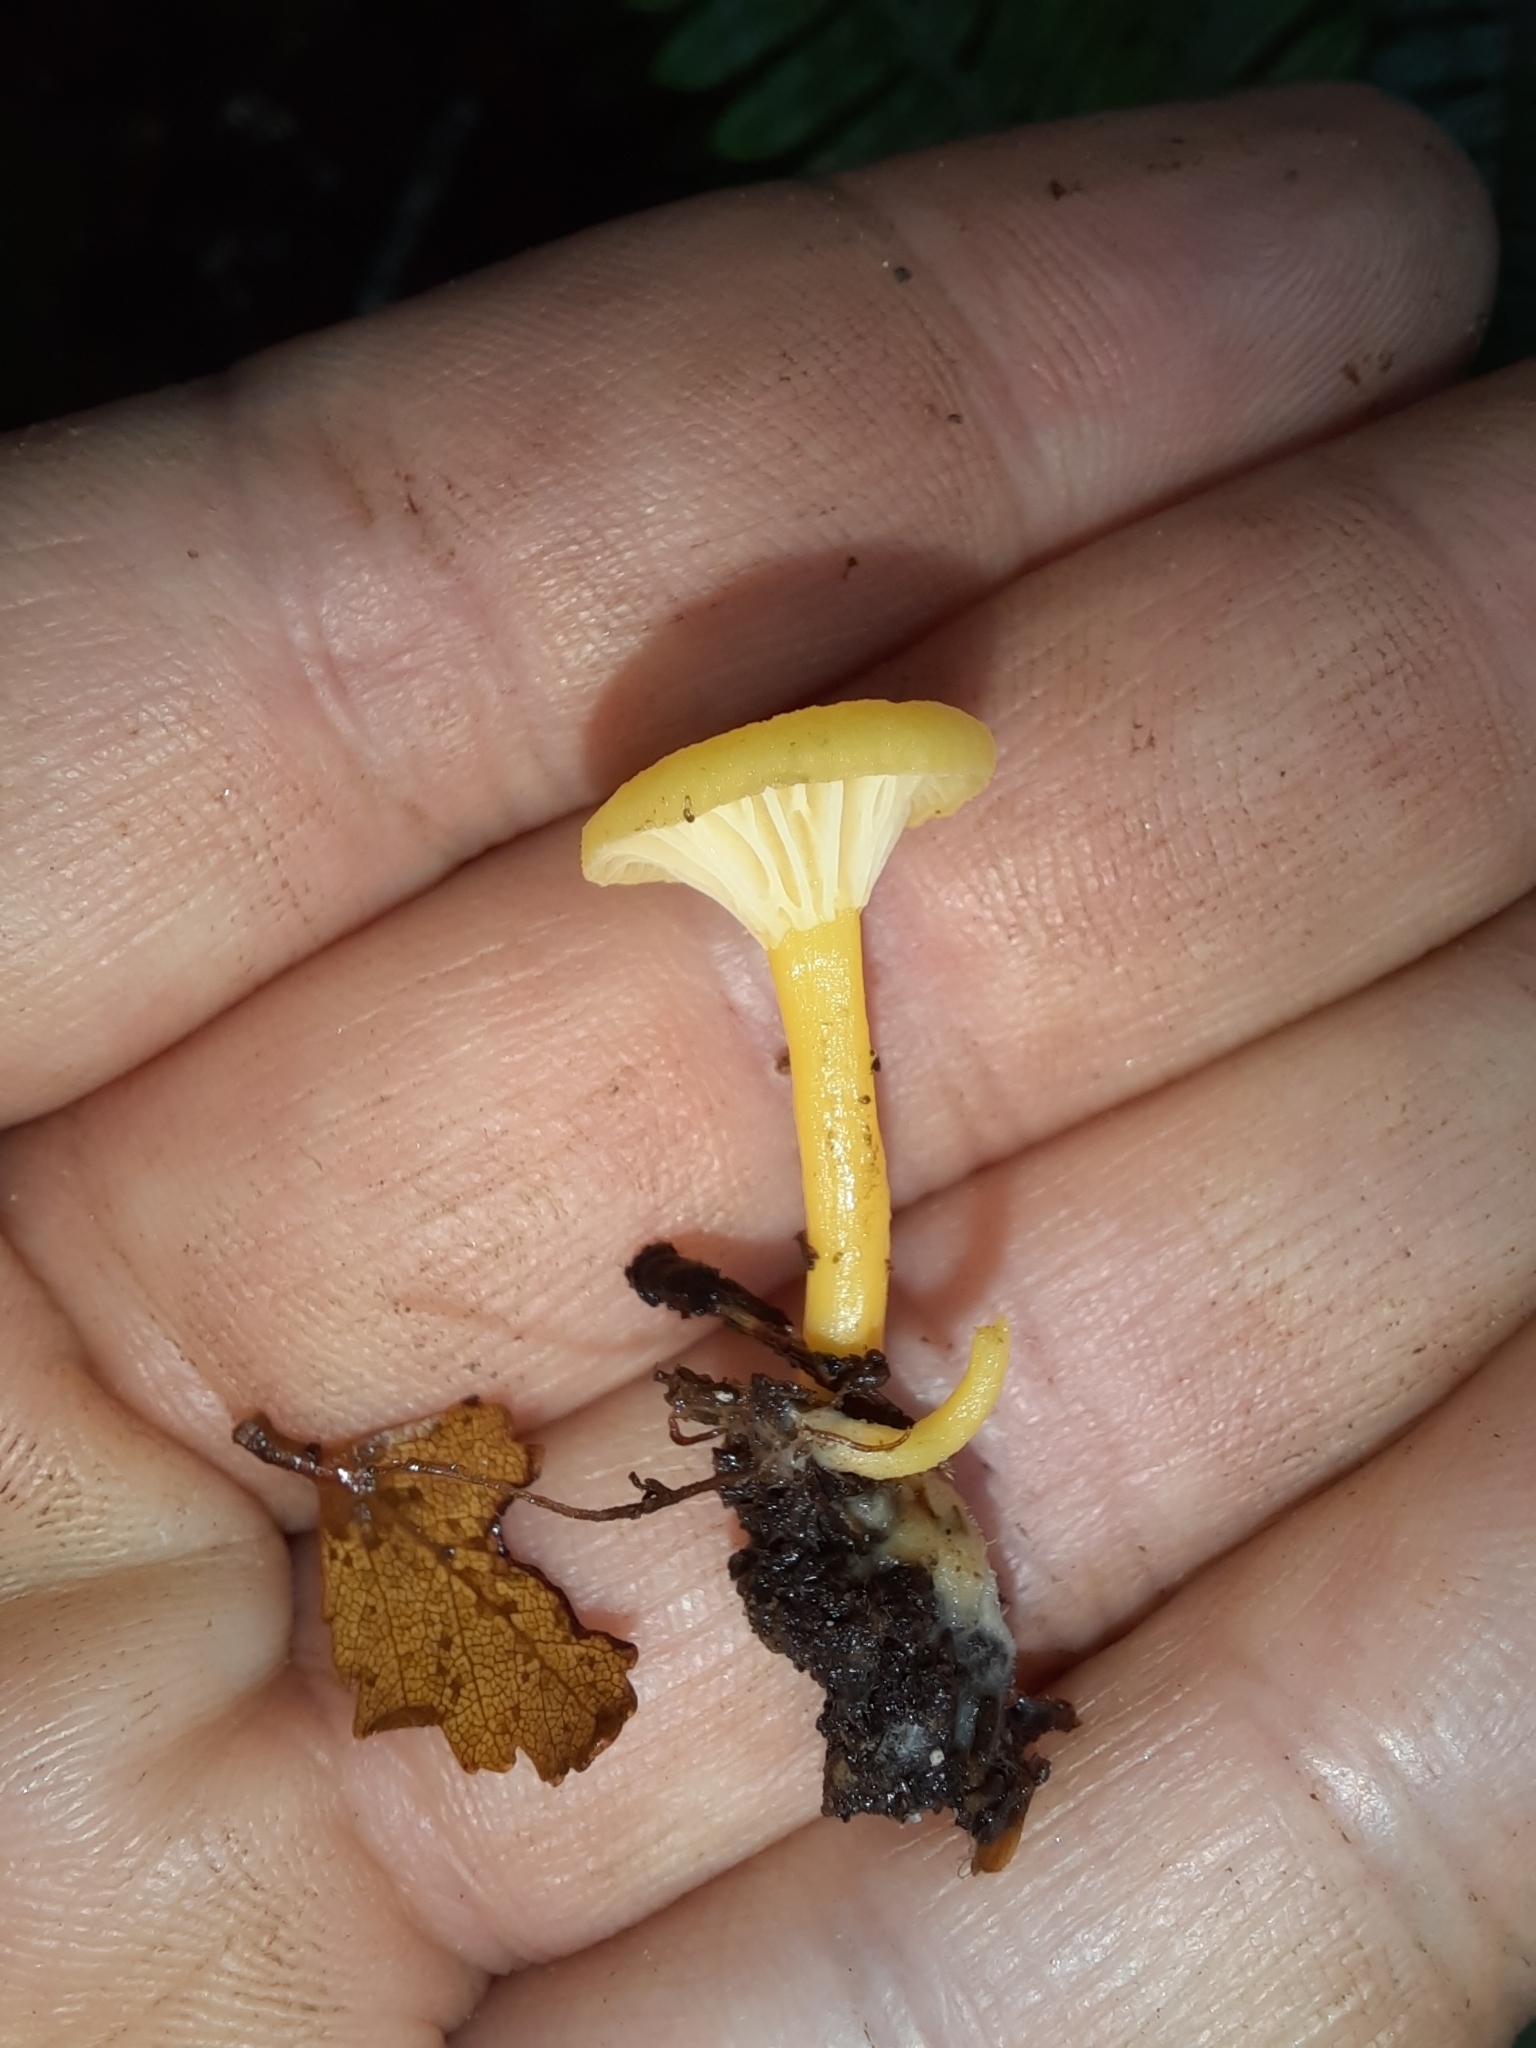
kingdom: Fungi
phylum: Basidiomycota
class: Agaricomycetes
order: Agaricales
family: Hygrophoraceae
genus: Gloioxanthomyces
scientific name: Gloioxanthomyces
